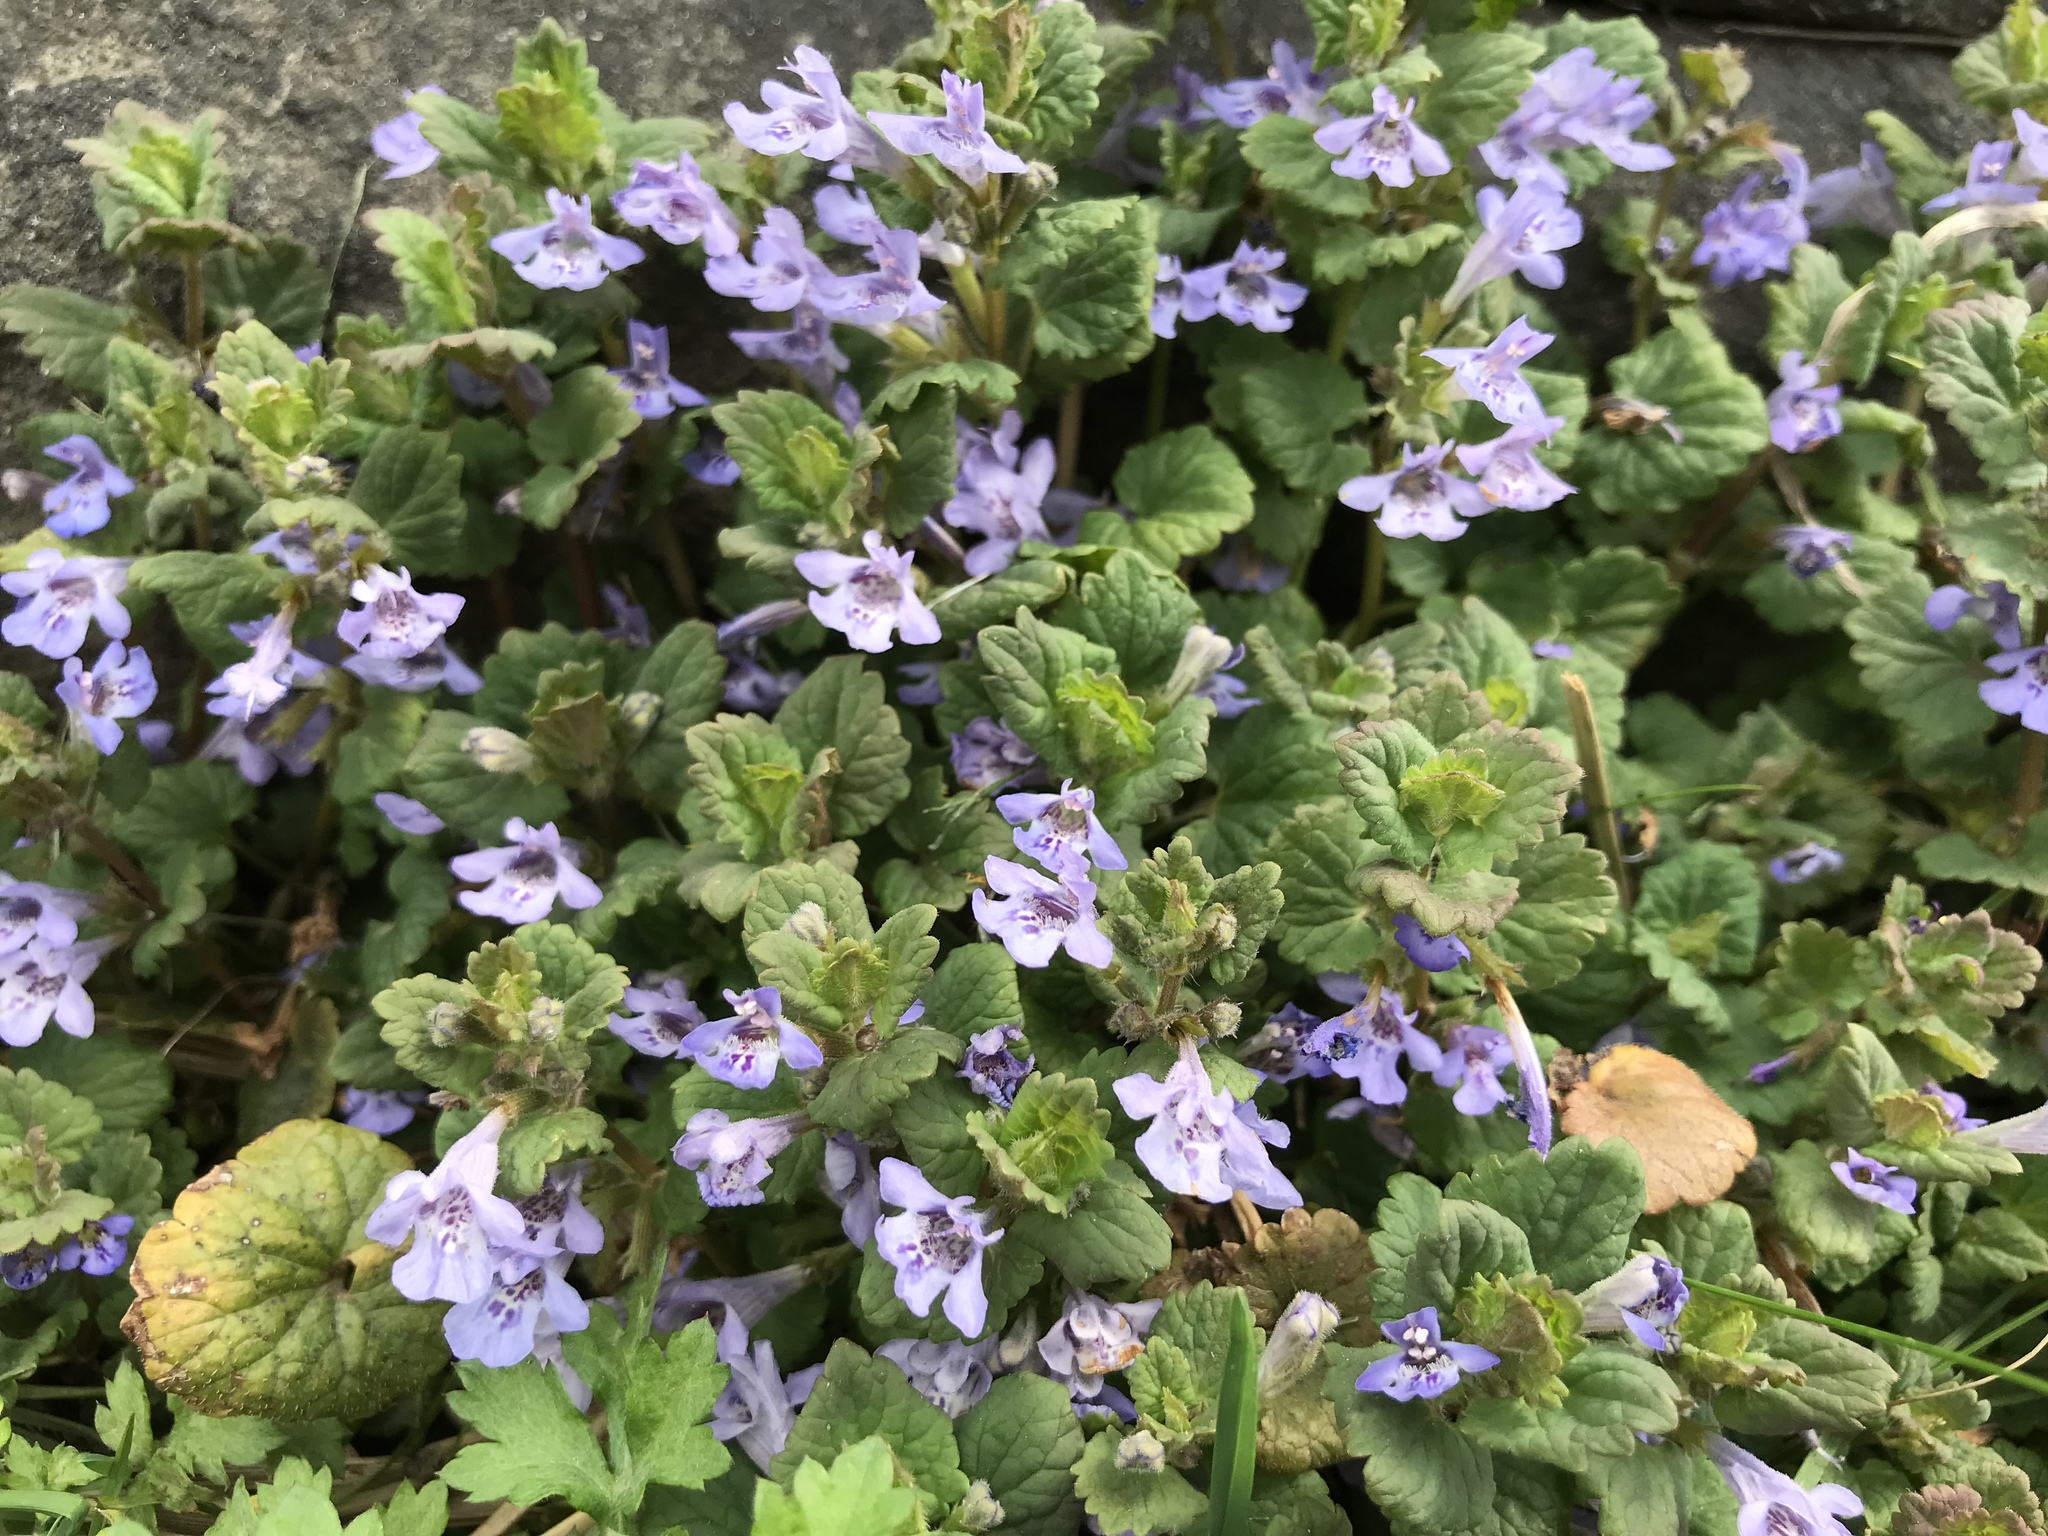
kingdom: Plantae
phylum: Tracheophyta
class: Magnoliopsida
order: Lamiales
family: Lamiaceae
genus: Glechoma
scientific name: Glechoma hederacea
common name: Ground ivy
